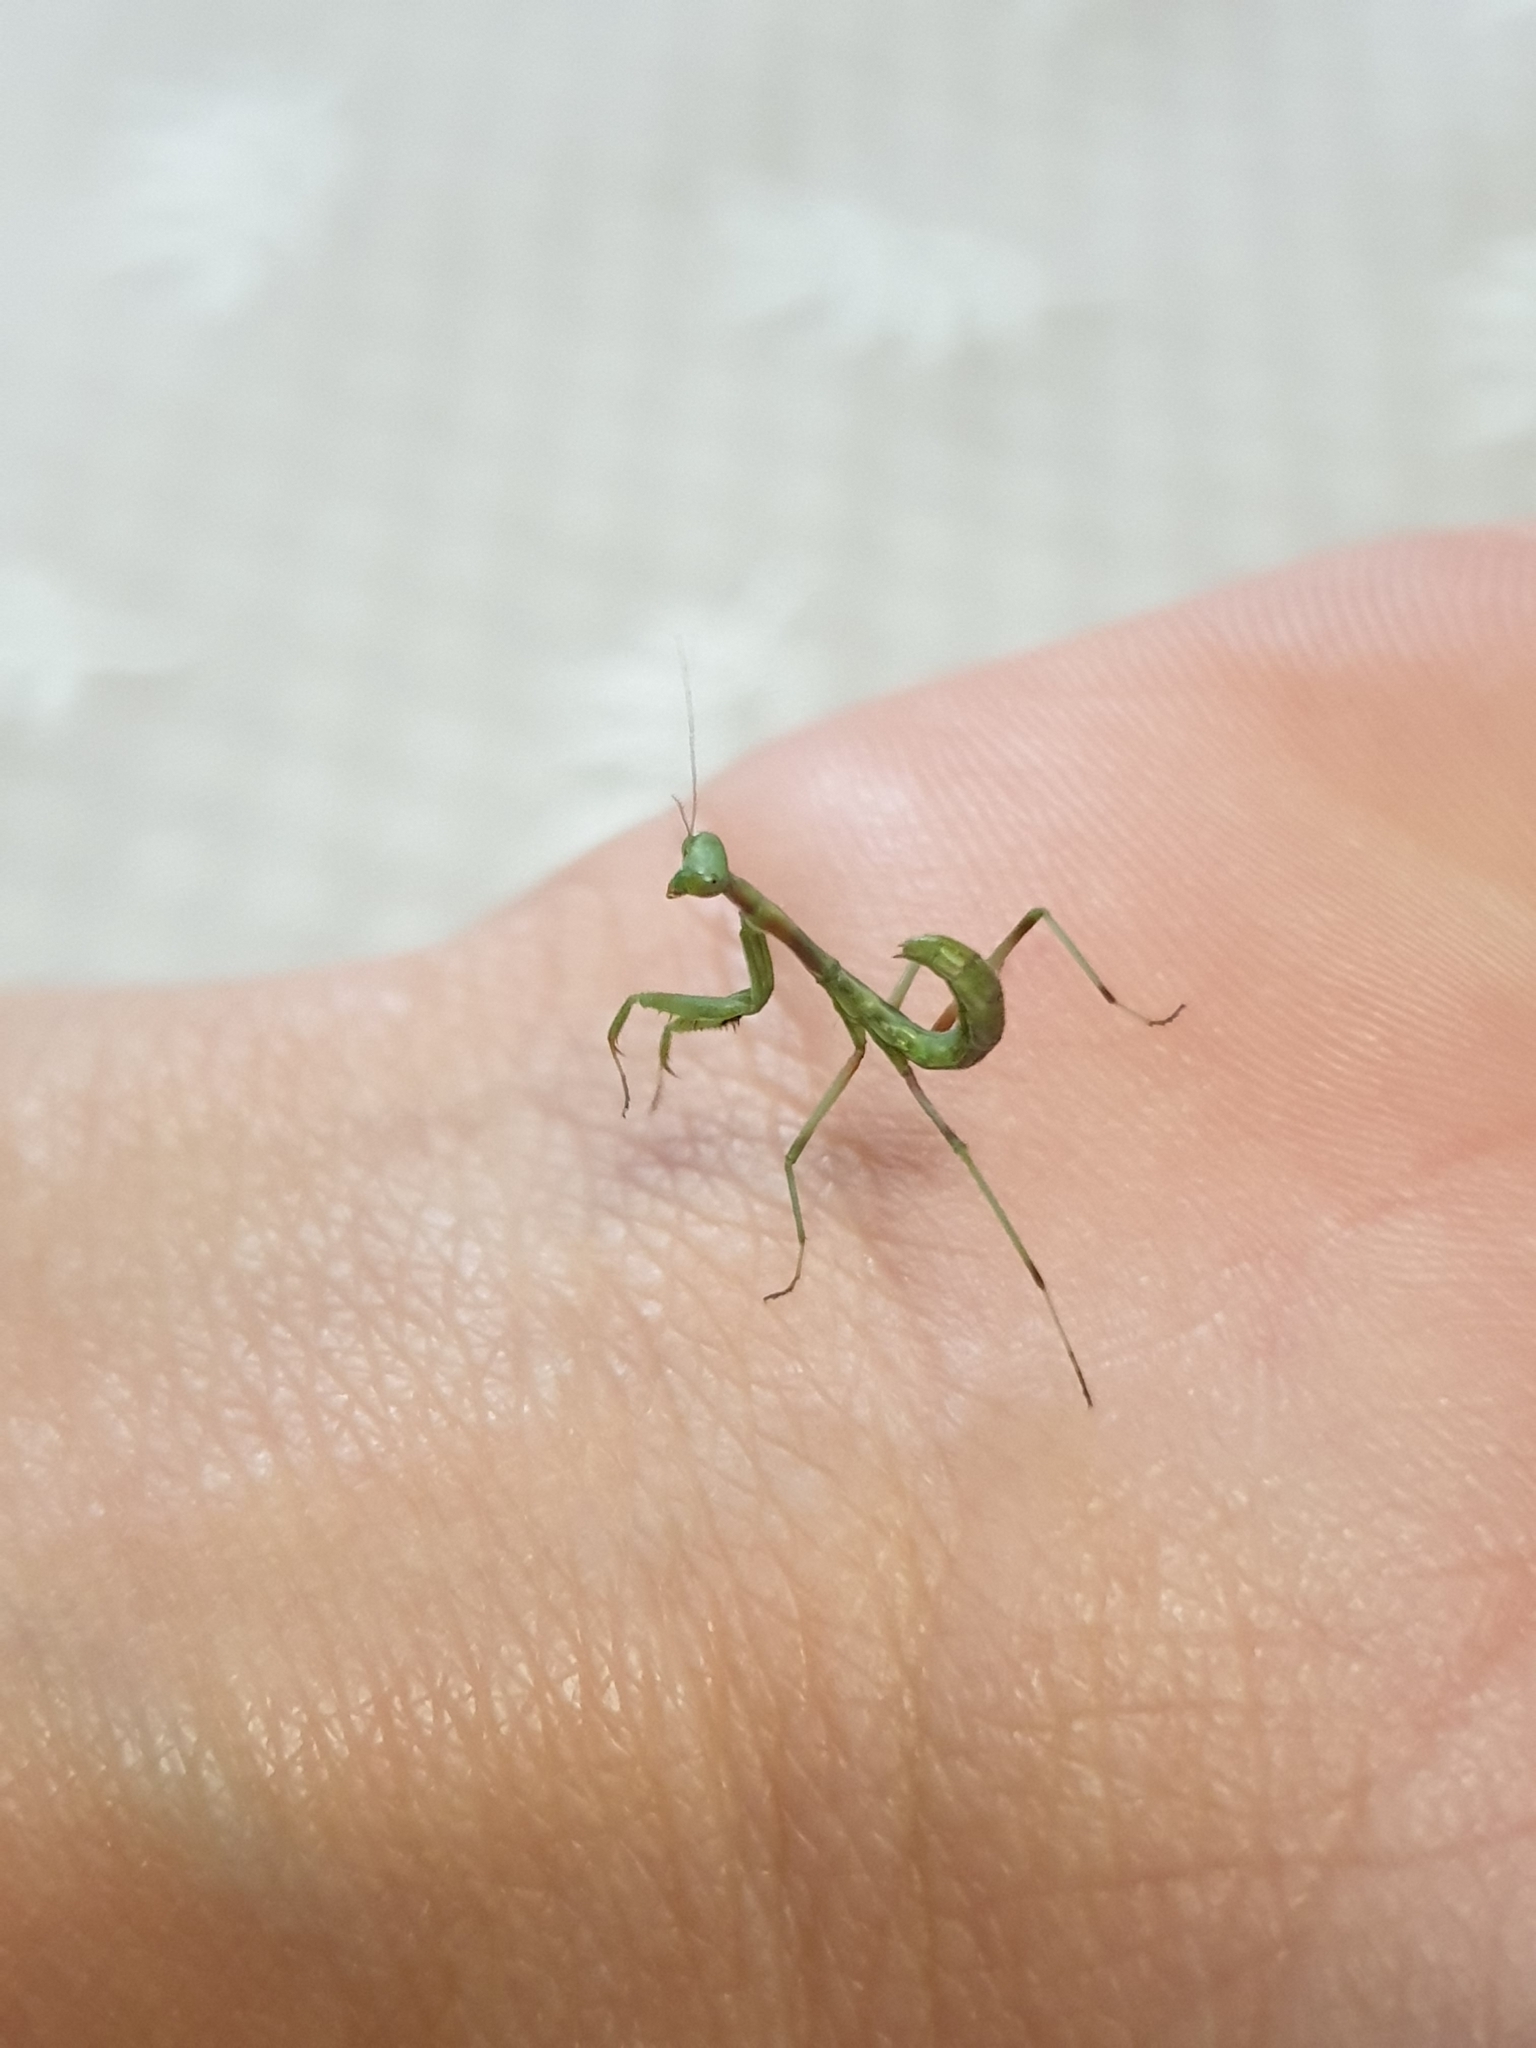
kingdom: Animalia
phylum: Arthropoda
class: Insecta
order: Mantodea
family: Mantidae
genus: Pseudomantis
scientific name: Pseudomantis albofimbriata
